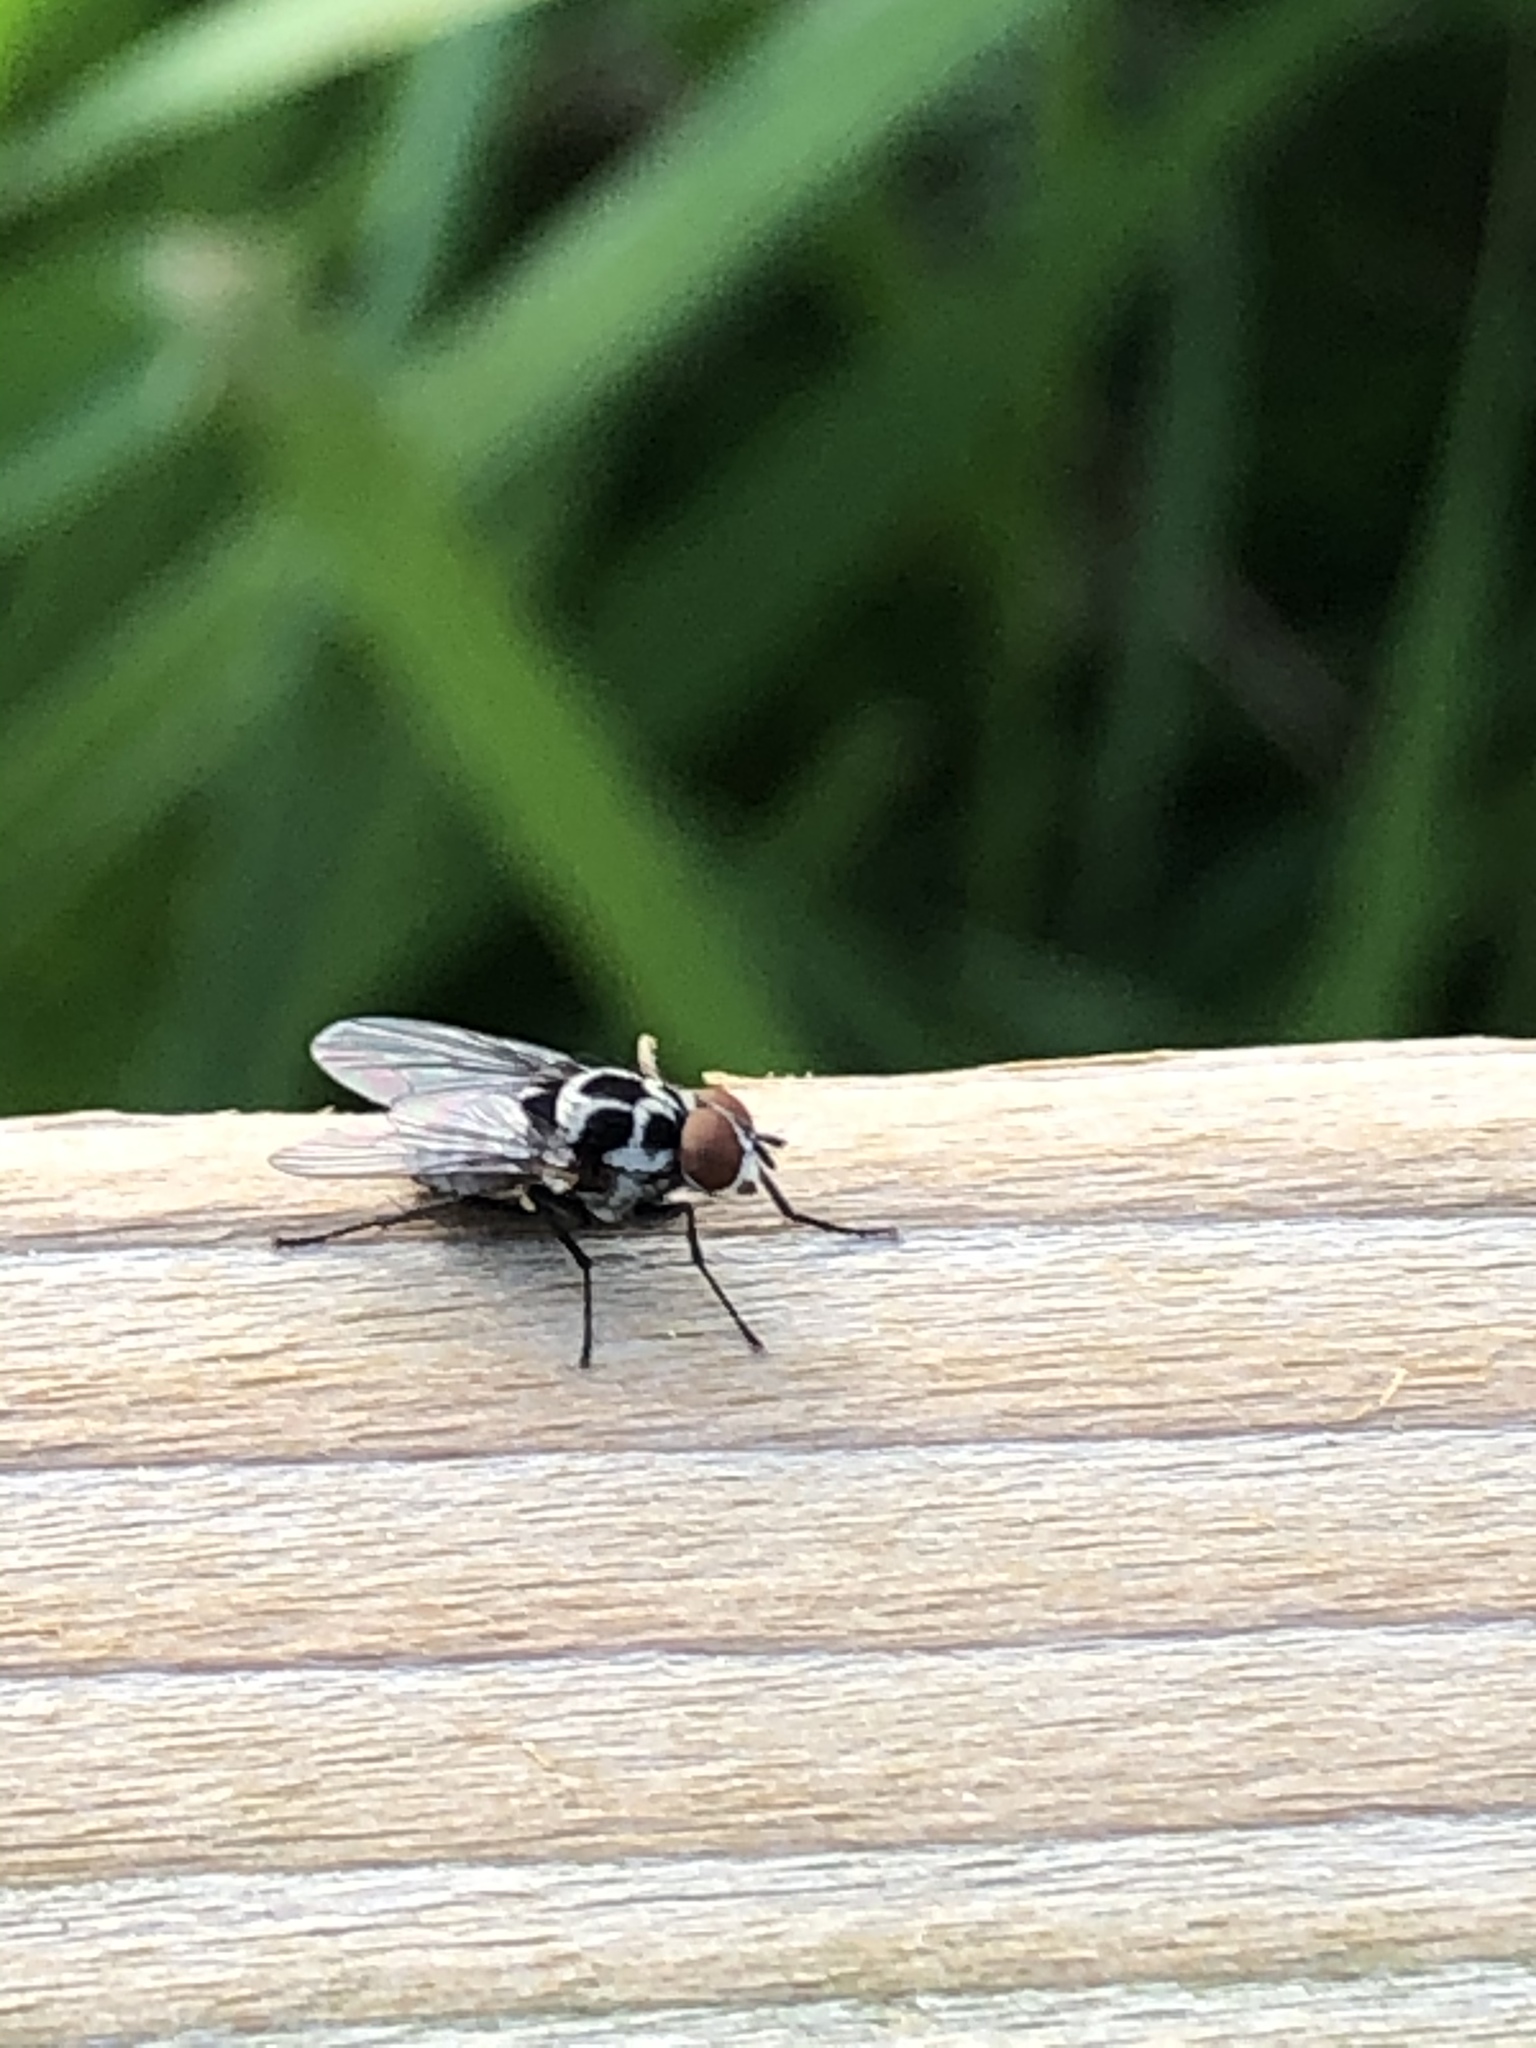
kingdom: Animalia
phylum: Arthropoda
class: Insecta
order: Diptera
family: Anthomyiidae
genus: Anthomyia
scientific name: Anthomyia procellaris
